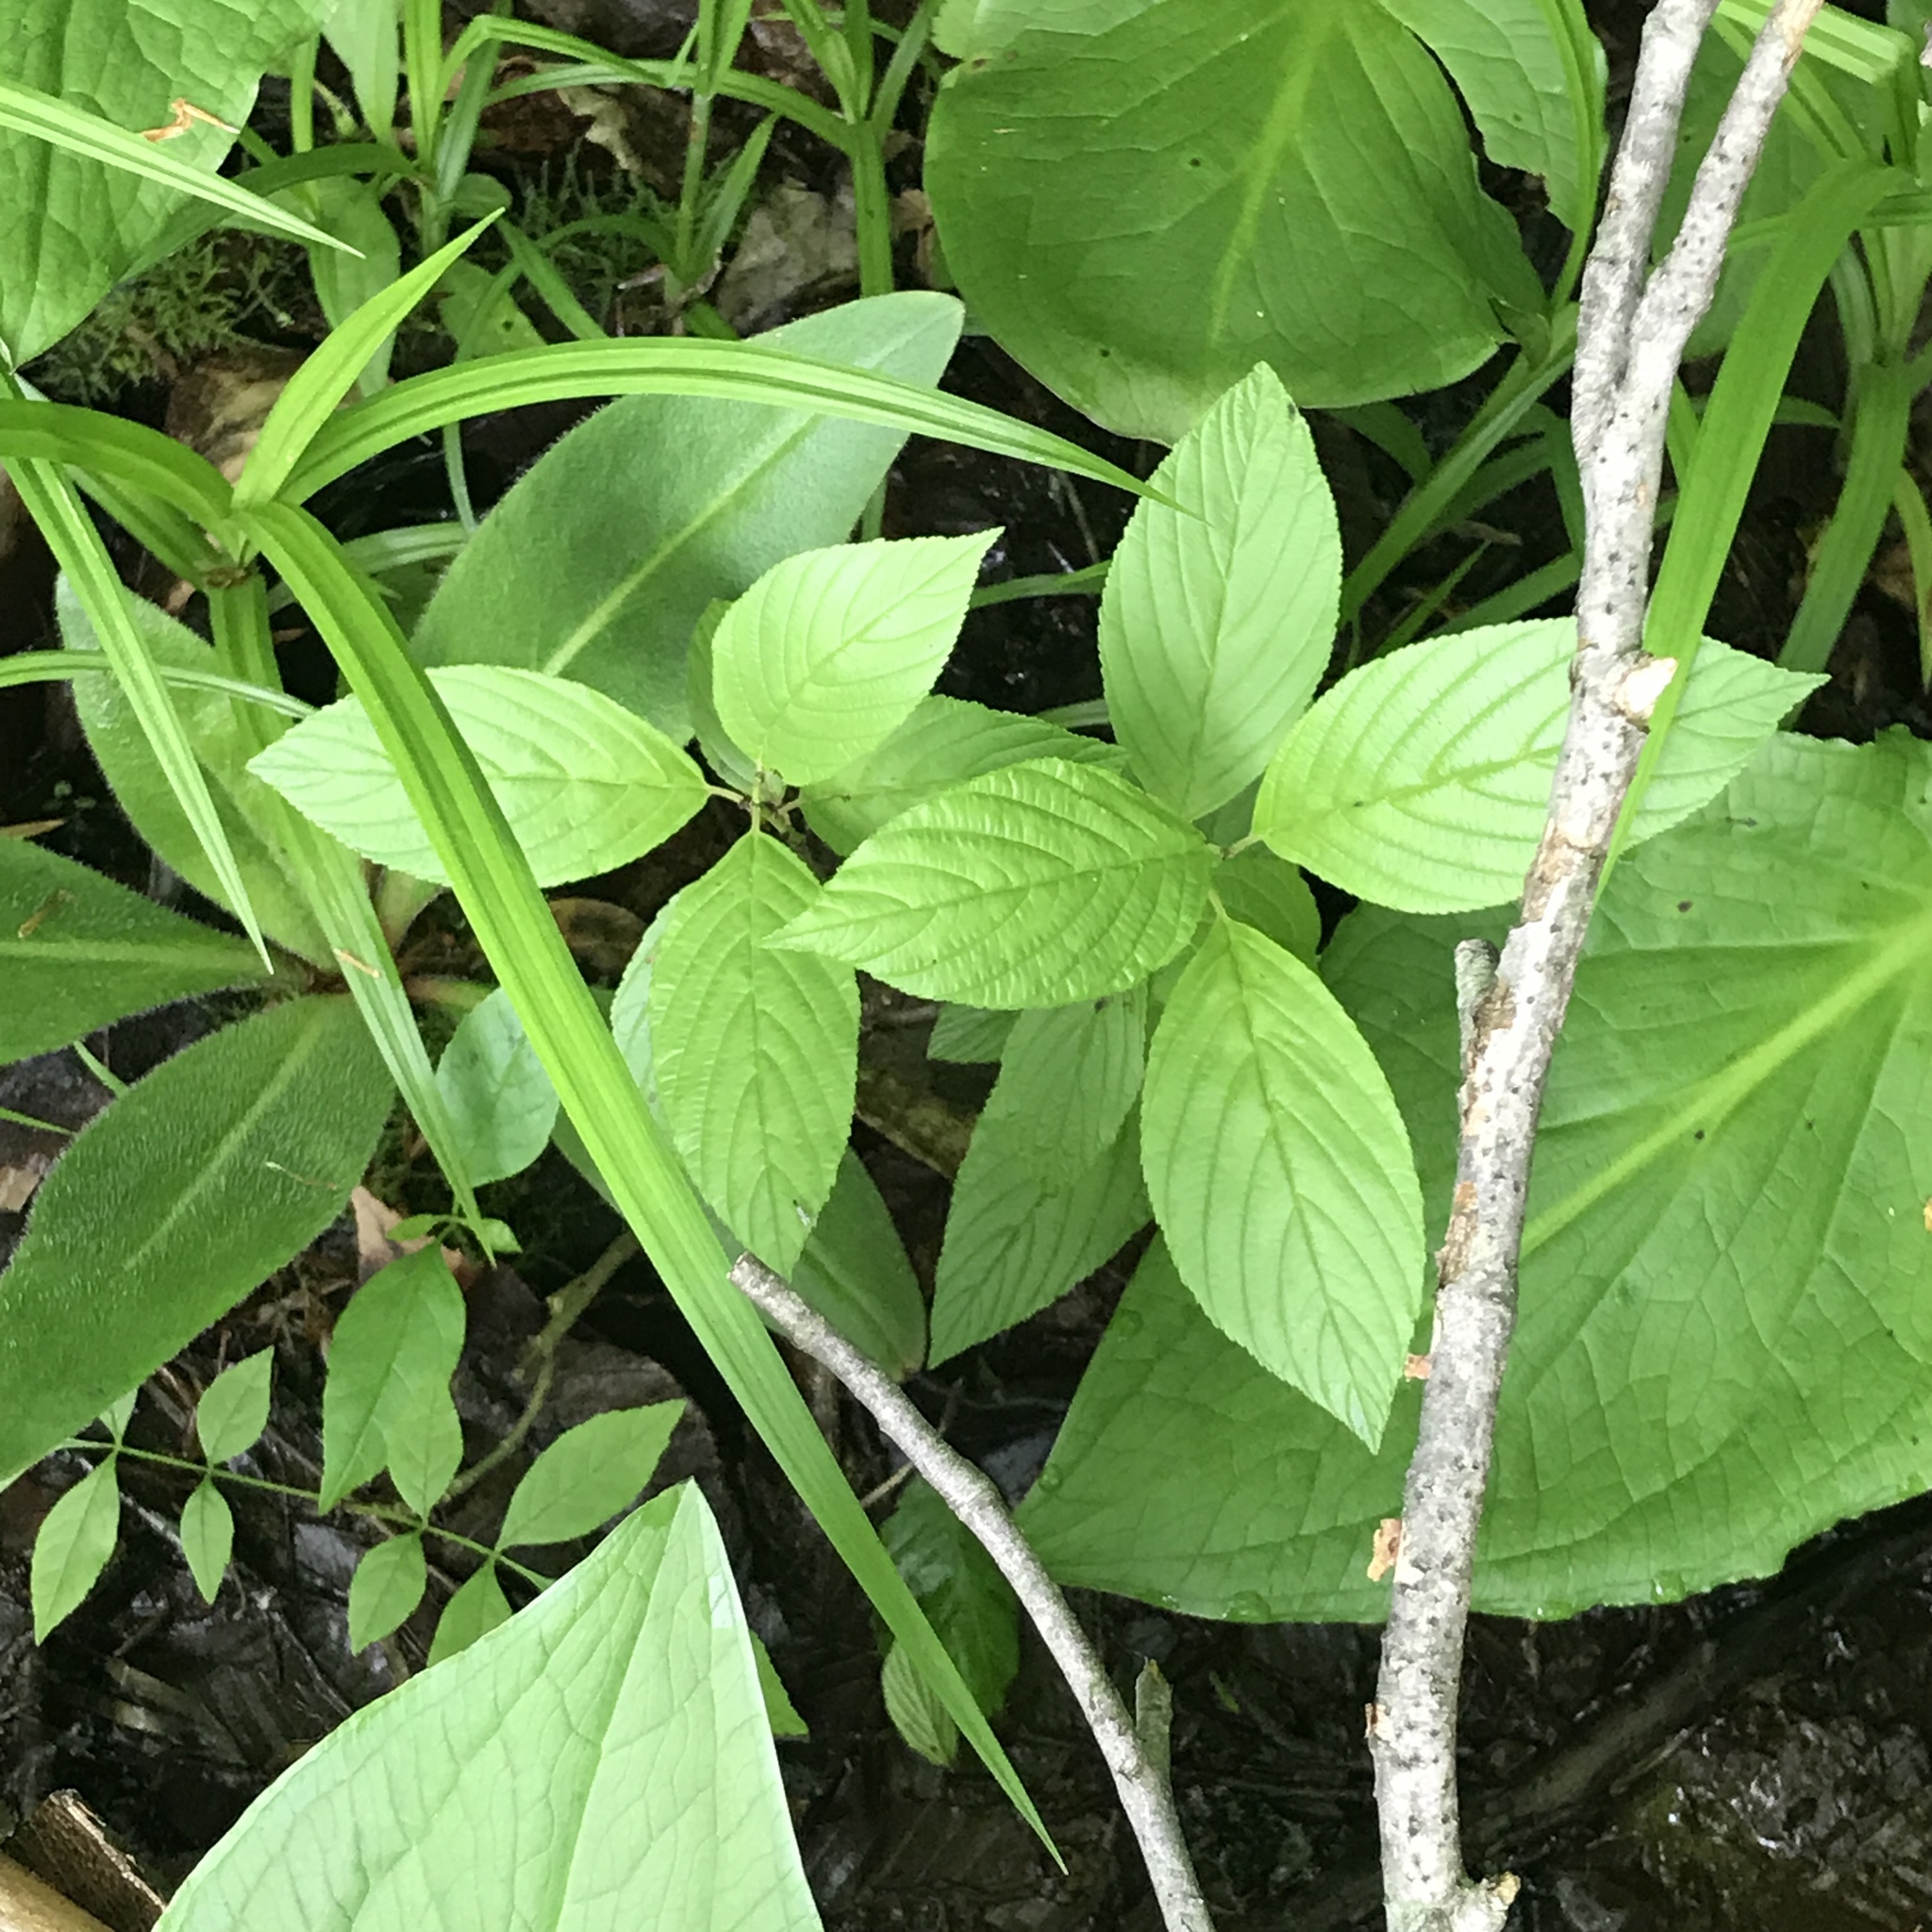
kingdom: Plantae
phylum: Tracheophyta
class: Magnoliopsida
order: Rosales
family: Rhamnaceae
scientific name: Rhamnaceae
